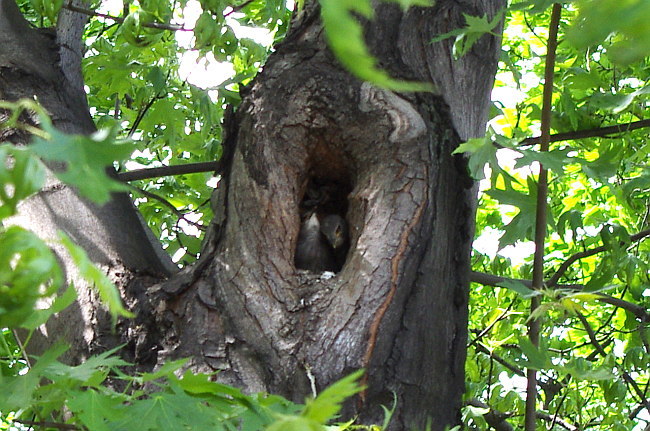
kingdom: Animalia
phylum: Chordata
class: Aves
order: Passeriformes
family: Sturnidae
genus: Sturnus
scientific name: Sturnus vulgaris
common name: Common starling
